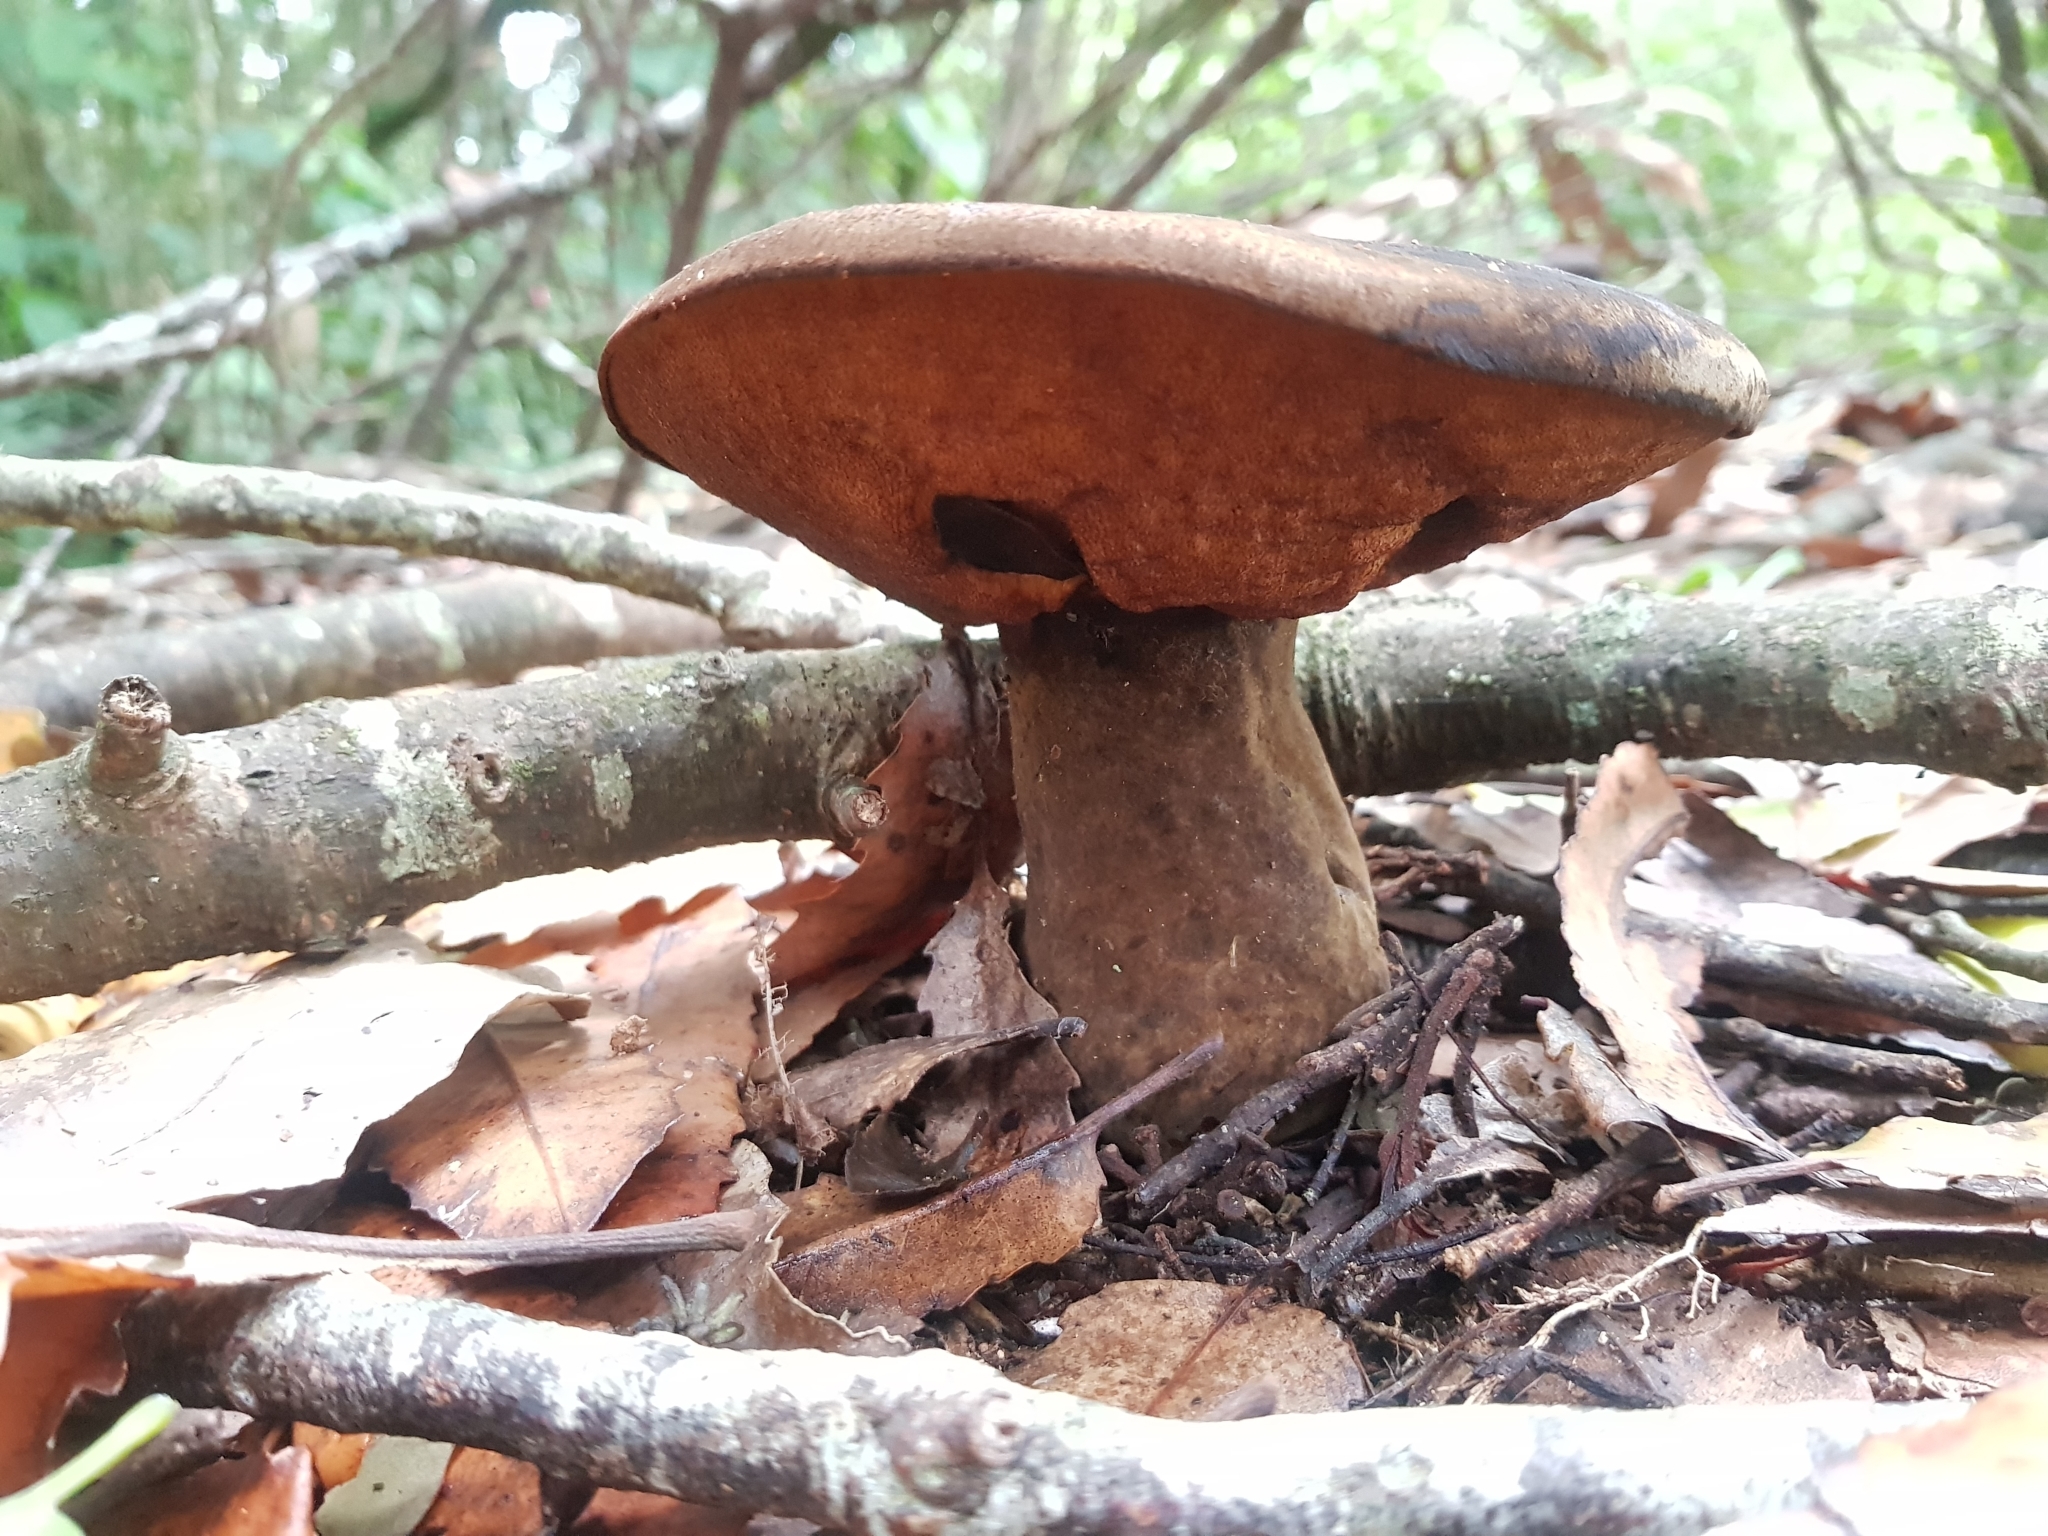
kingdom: Fungi
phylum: Basidiomycota
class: Agaricomycetes
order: Boletales
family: Boletinellaceae
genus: Phlebopus
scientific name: Phlebopus marginatus
